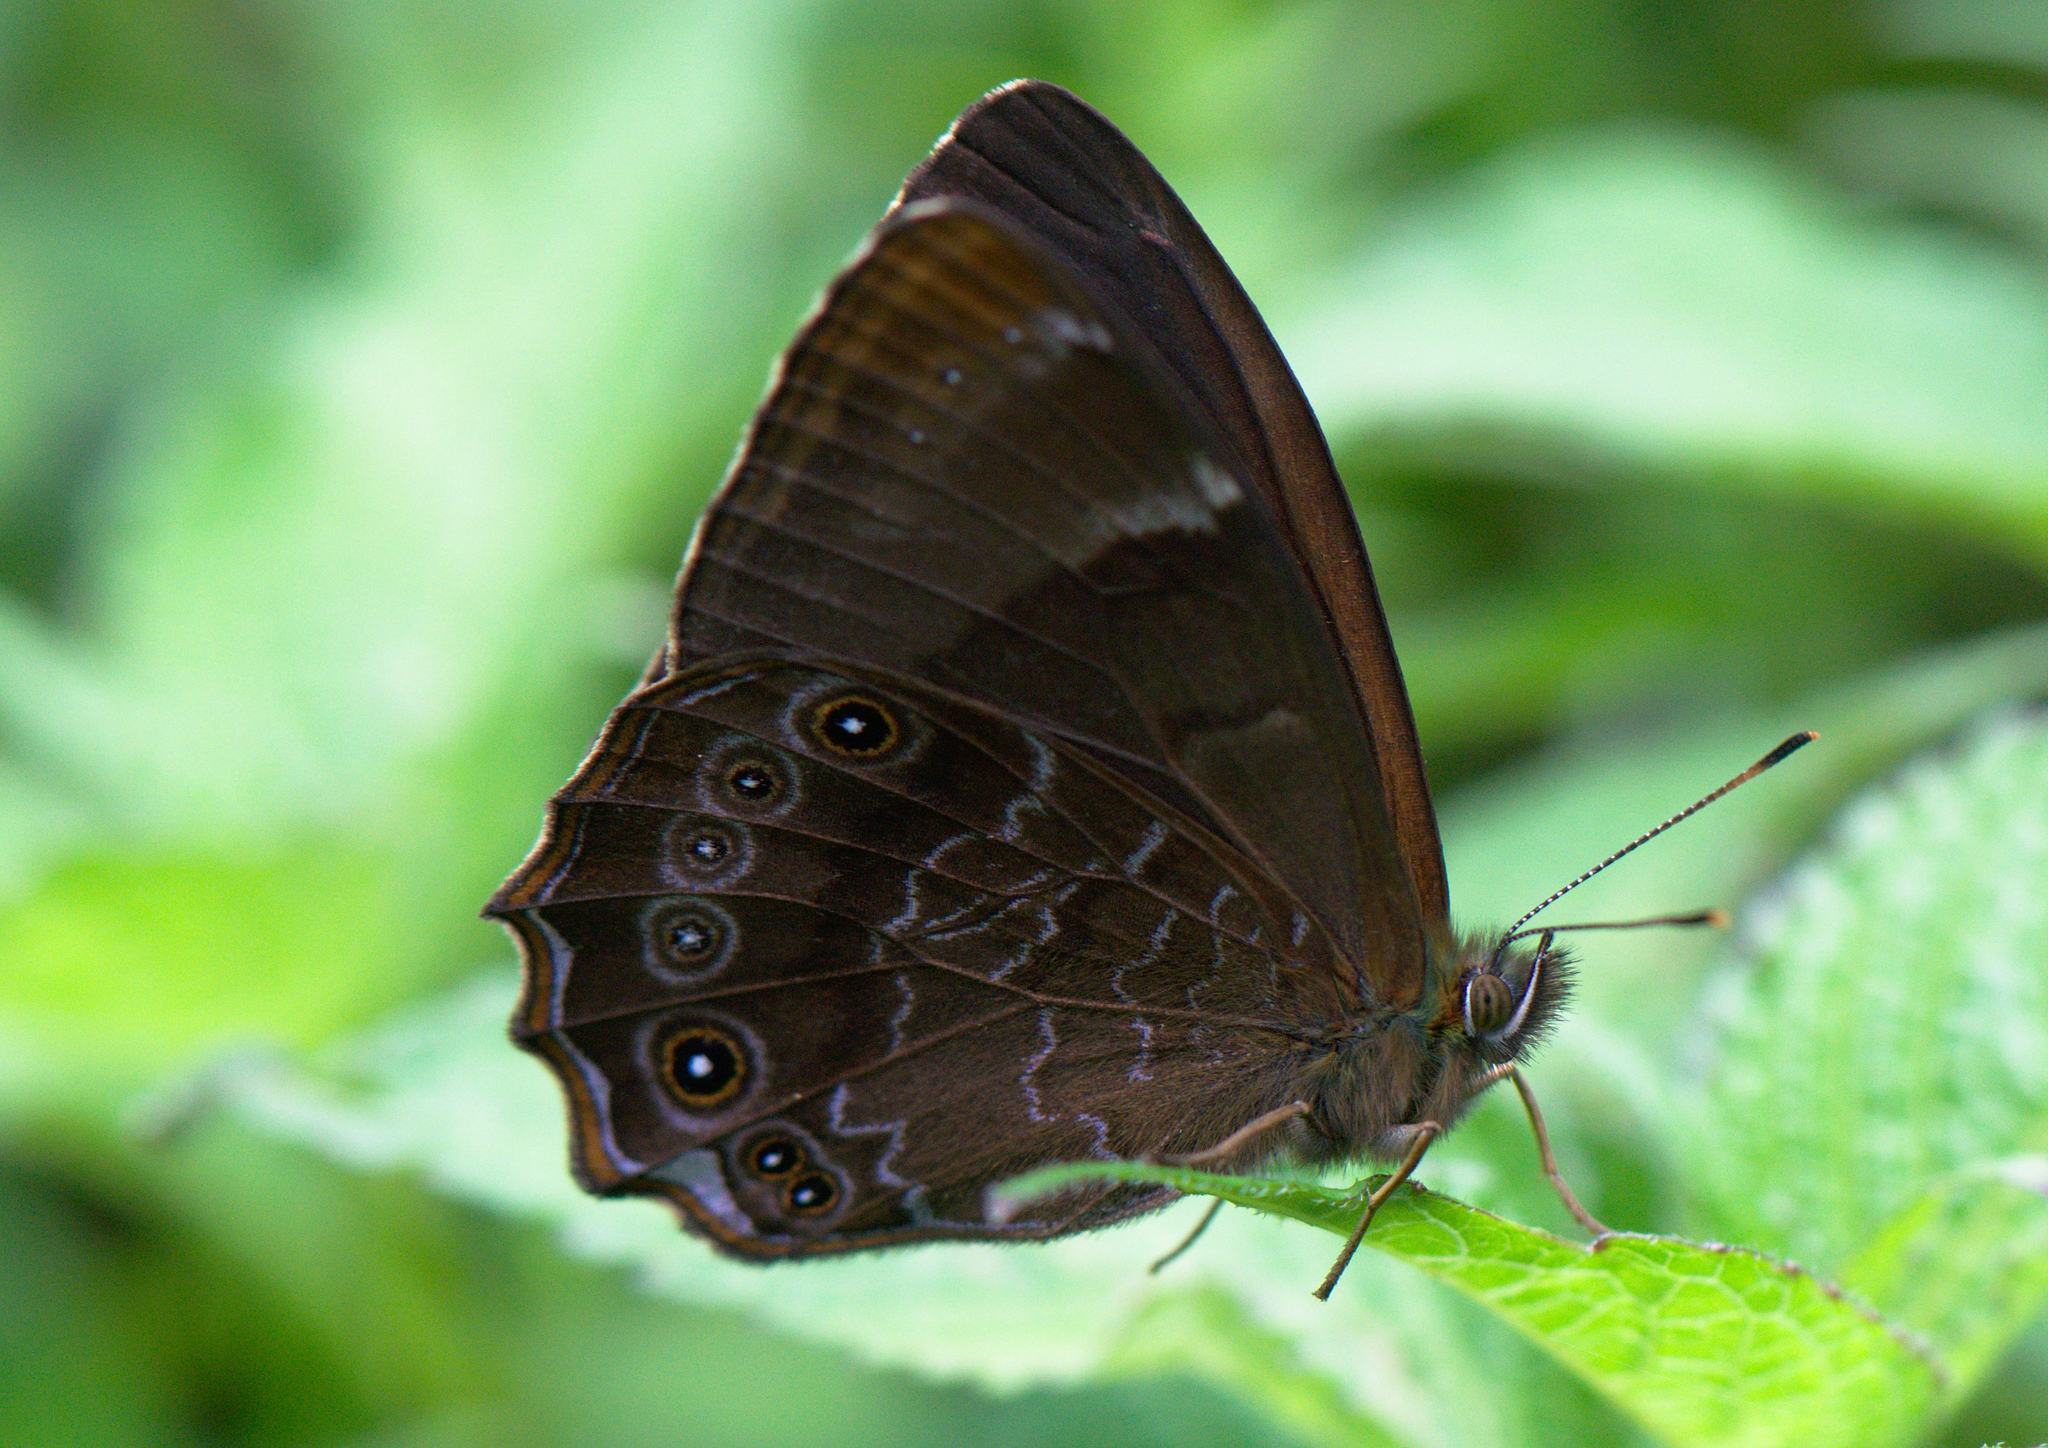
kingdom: Animalia
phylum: Arthropoda
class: Insecta
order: Lepidoptera
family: Nymphalidae
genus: Lethe
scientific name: Lethe sidonis
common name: Common woodbrown butterfly
